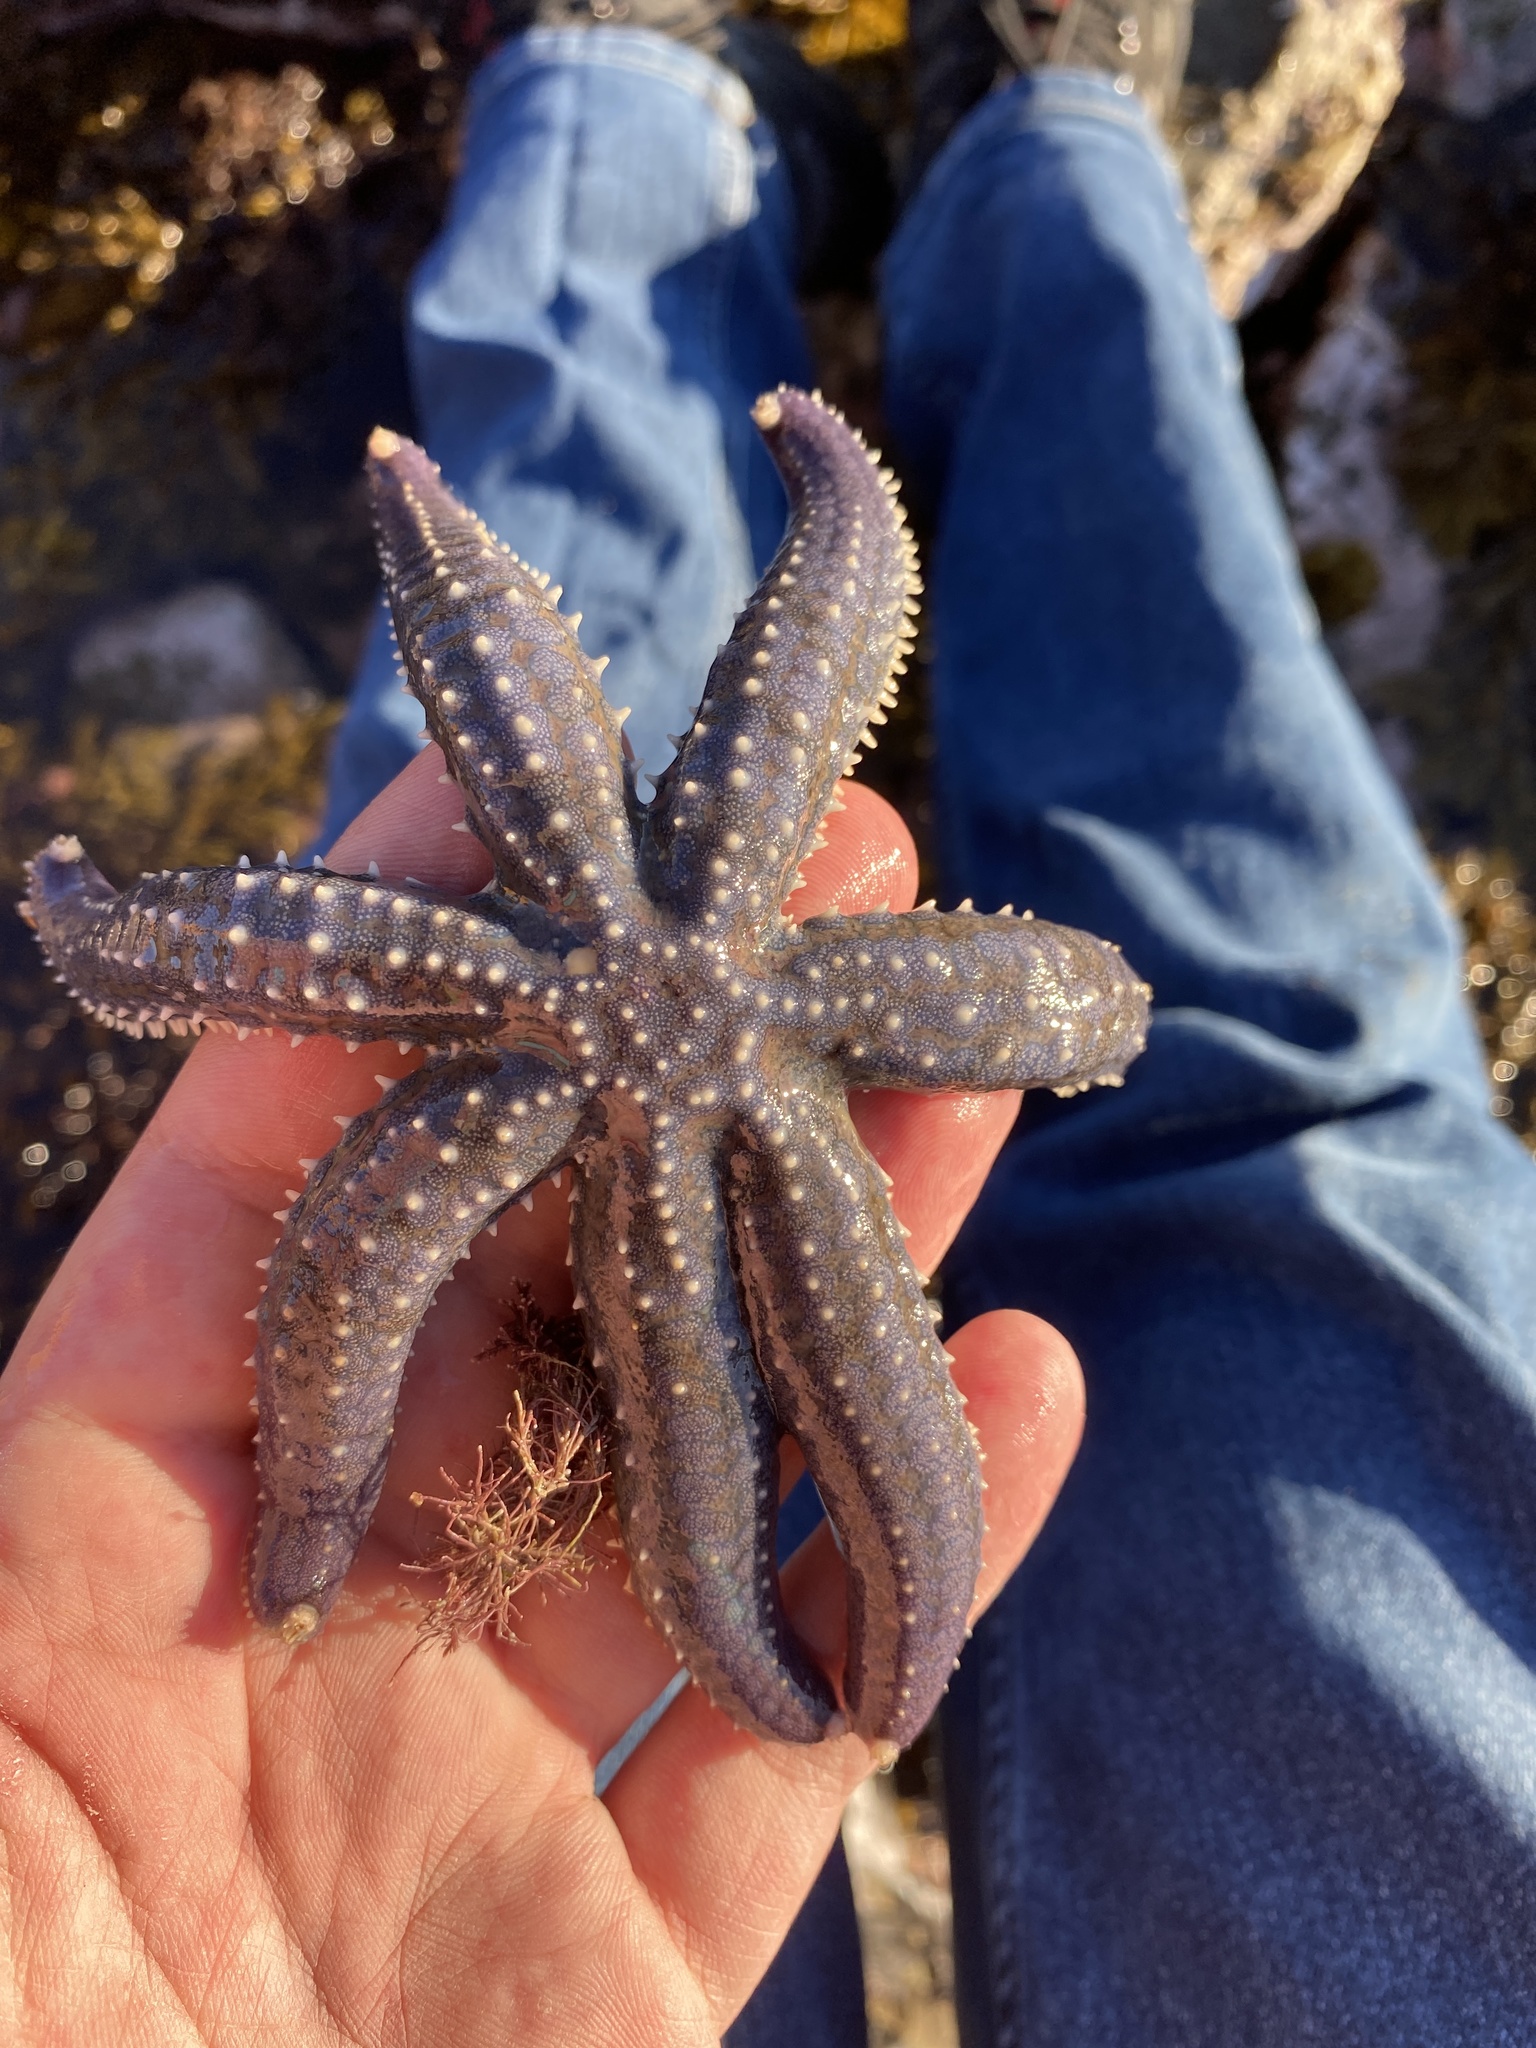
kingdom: Animalia
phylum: Echinodermata
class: Asteroidea
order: Forcipulatida
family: Asteriidae
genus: Astrostole
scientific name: Astrostole scabra
